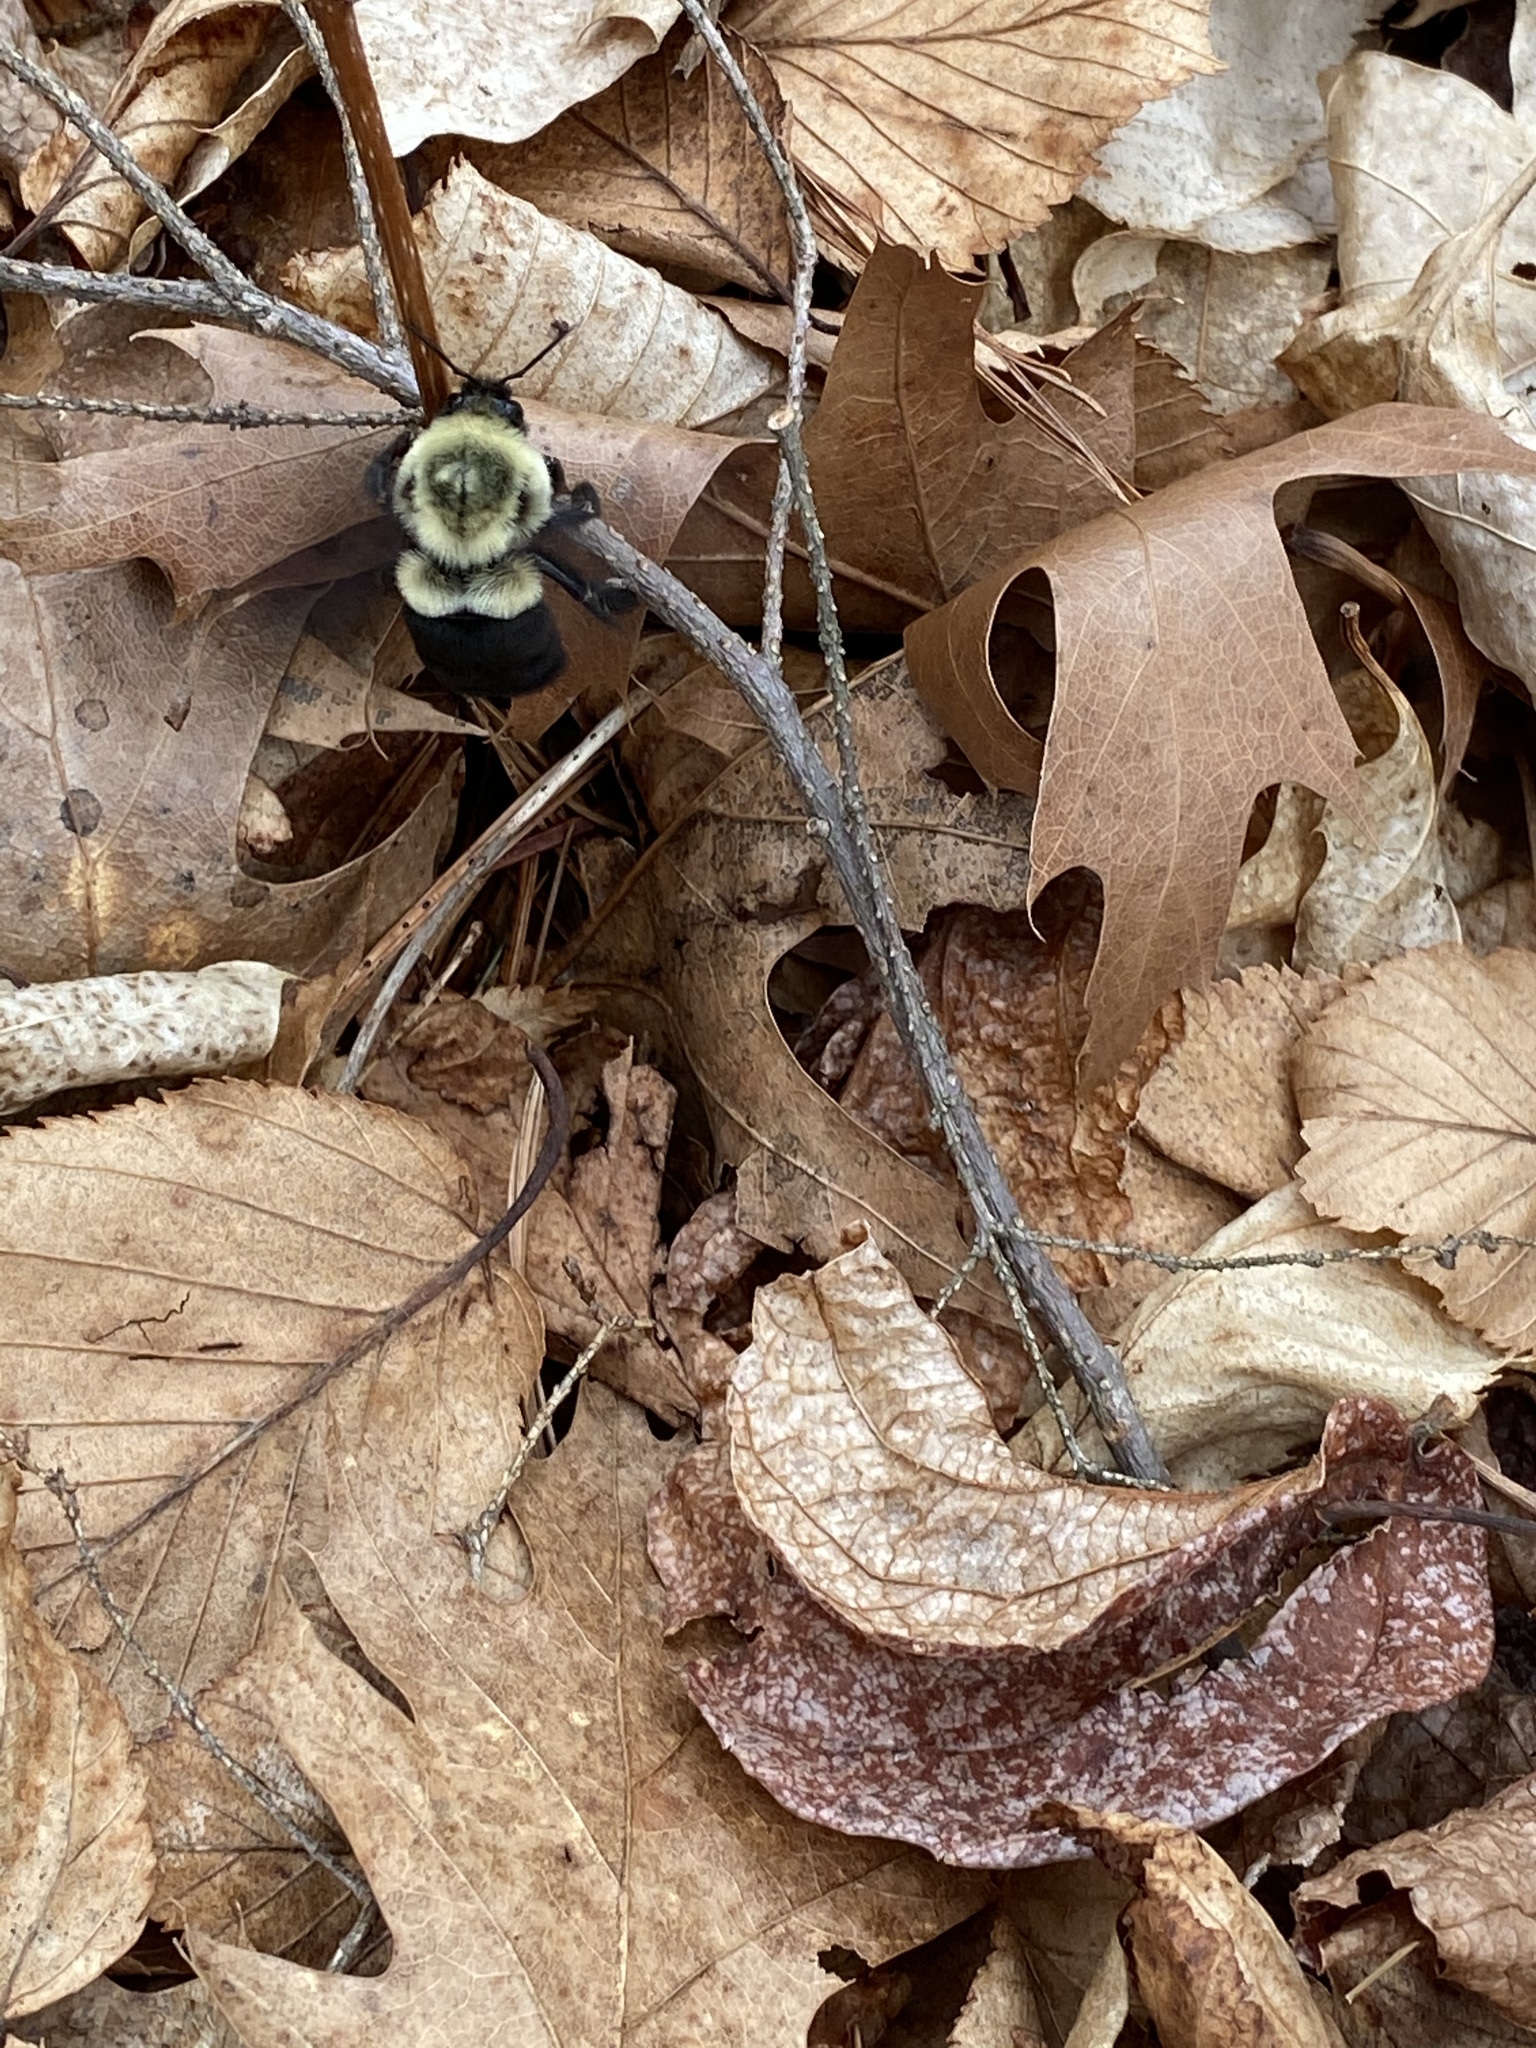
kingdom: Animalia
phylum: Arthropoda
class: Insecta
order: Hymenoptera
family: Apidae
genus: Bombus
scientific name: Bombus impatiens
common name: Common eastern bumble bee
